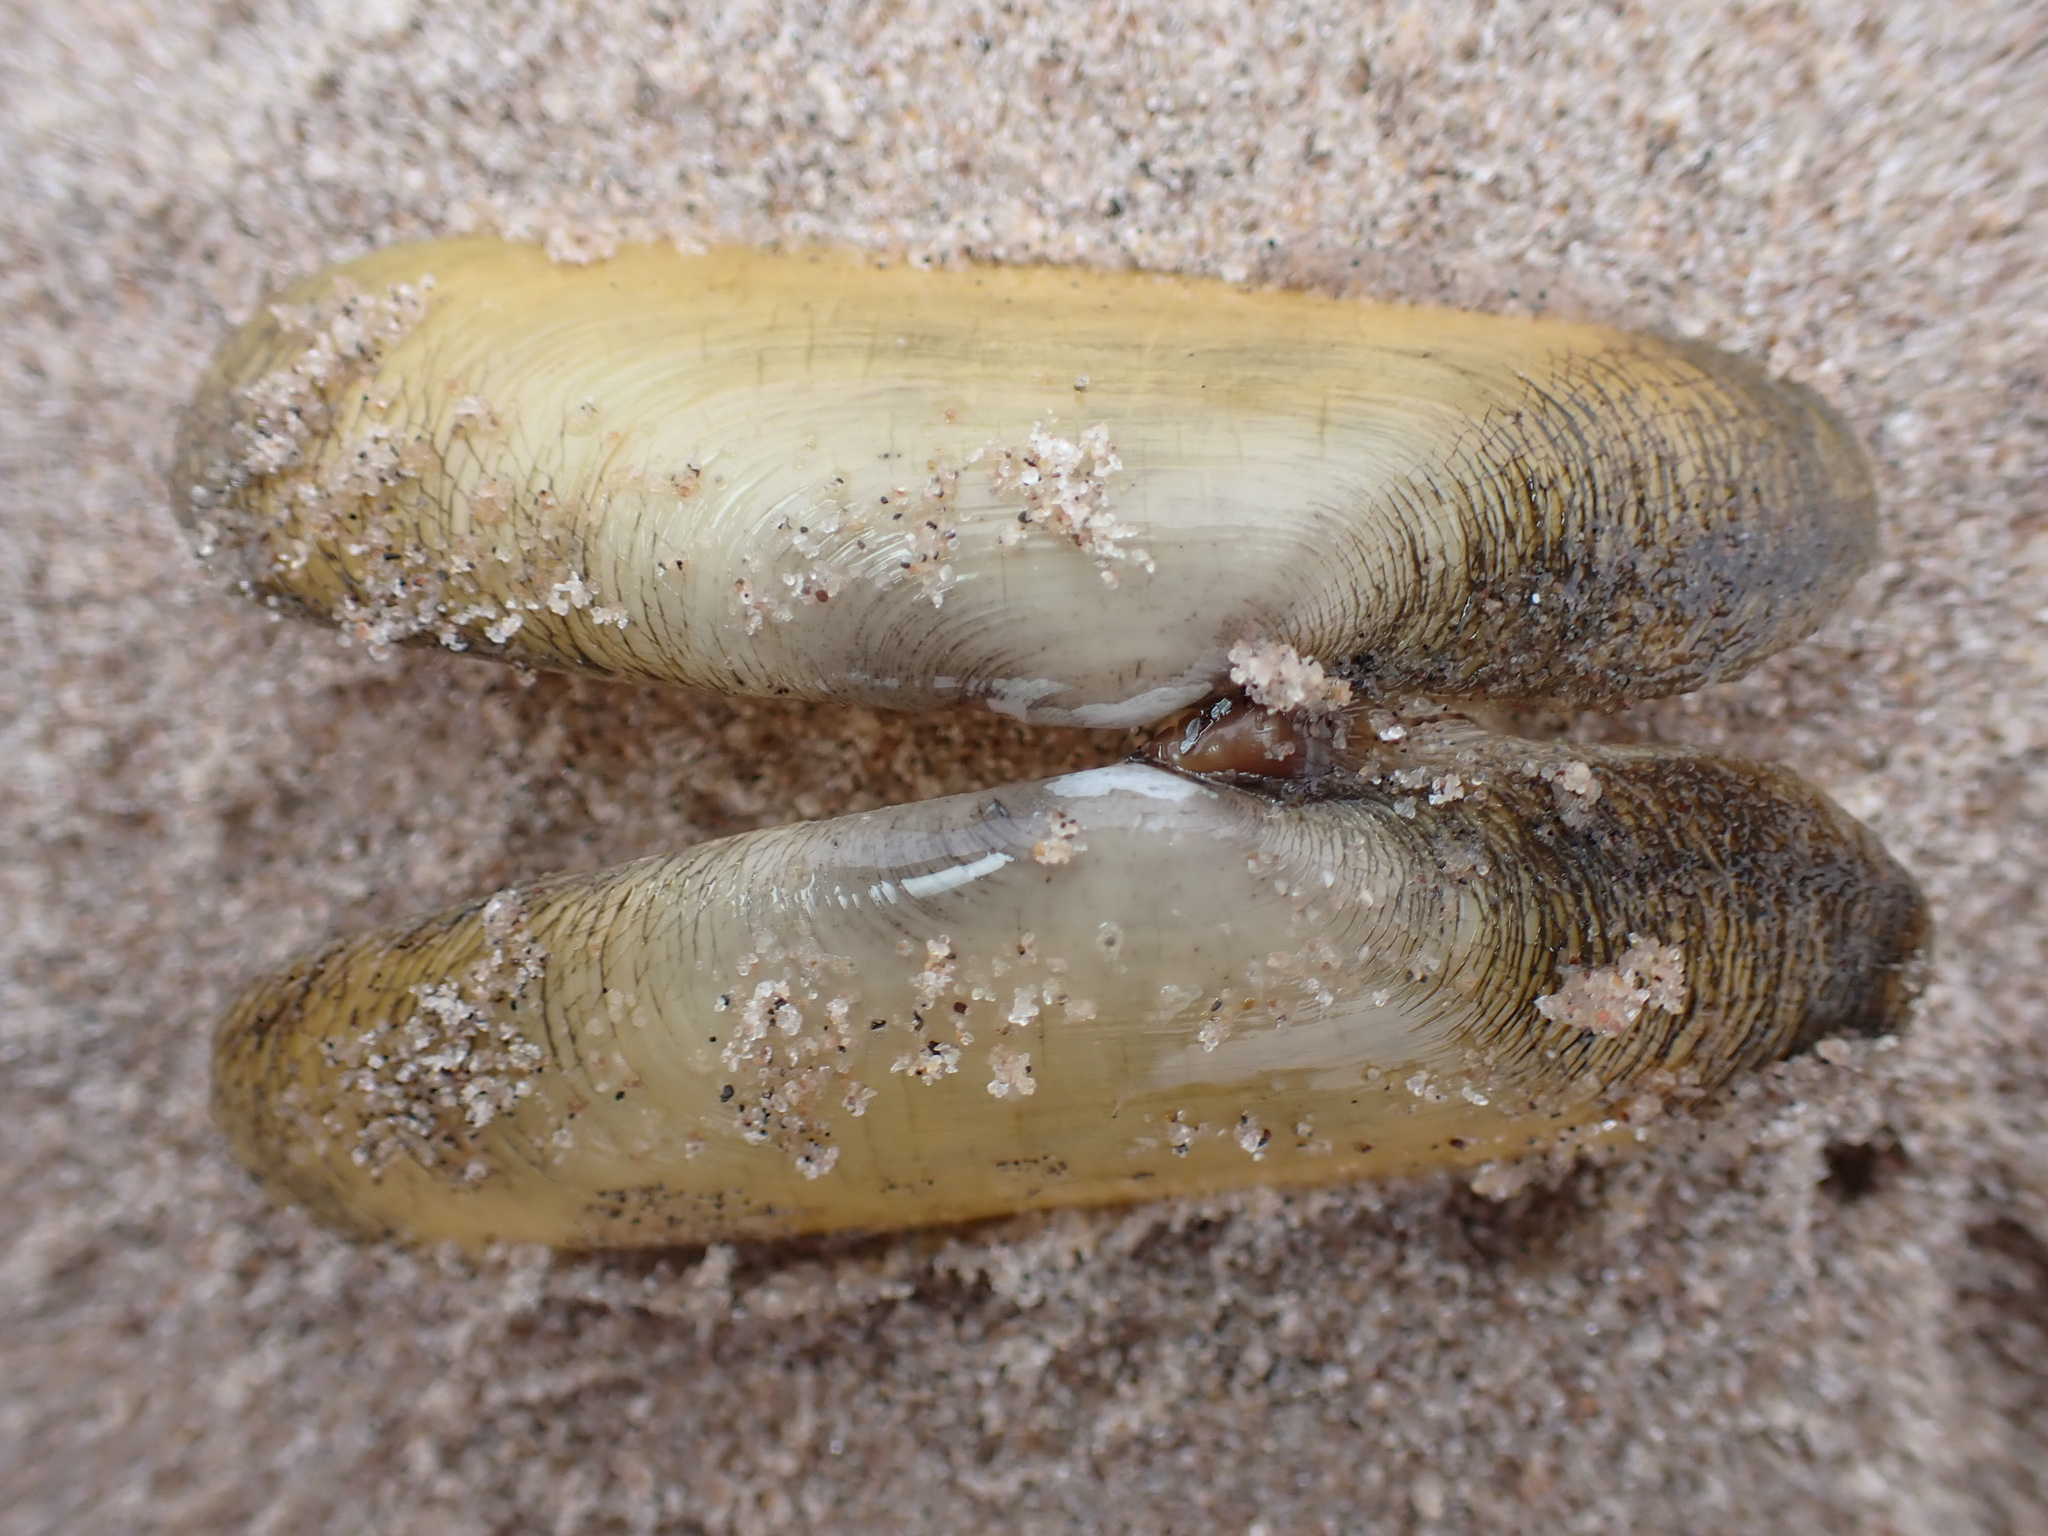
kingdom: Animalia
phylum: Mollusca
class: Bivalvia
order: Cardiida
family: Solecurtidae
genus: Tagelus
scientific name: Tagelus plebeius
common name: Stout tagelus
